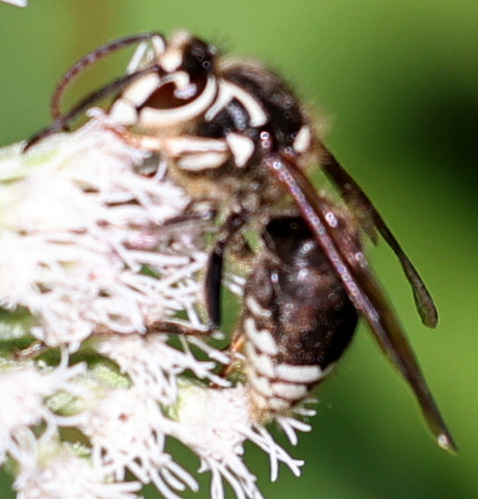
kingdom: Animalia
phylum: Arthropoda
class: Insecta
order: Hymenoptera
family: Vespidae
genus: Dolichovespula
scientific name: Dolichovespula maculata
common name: Bald-faced hornet
